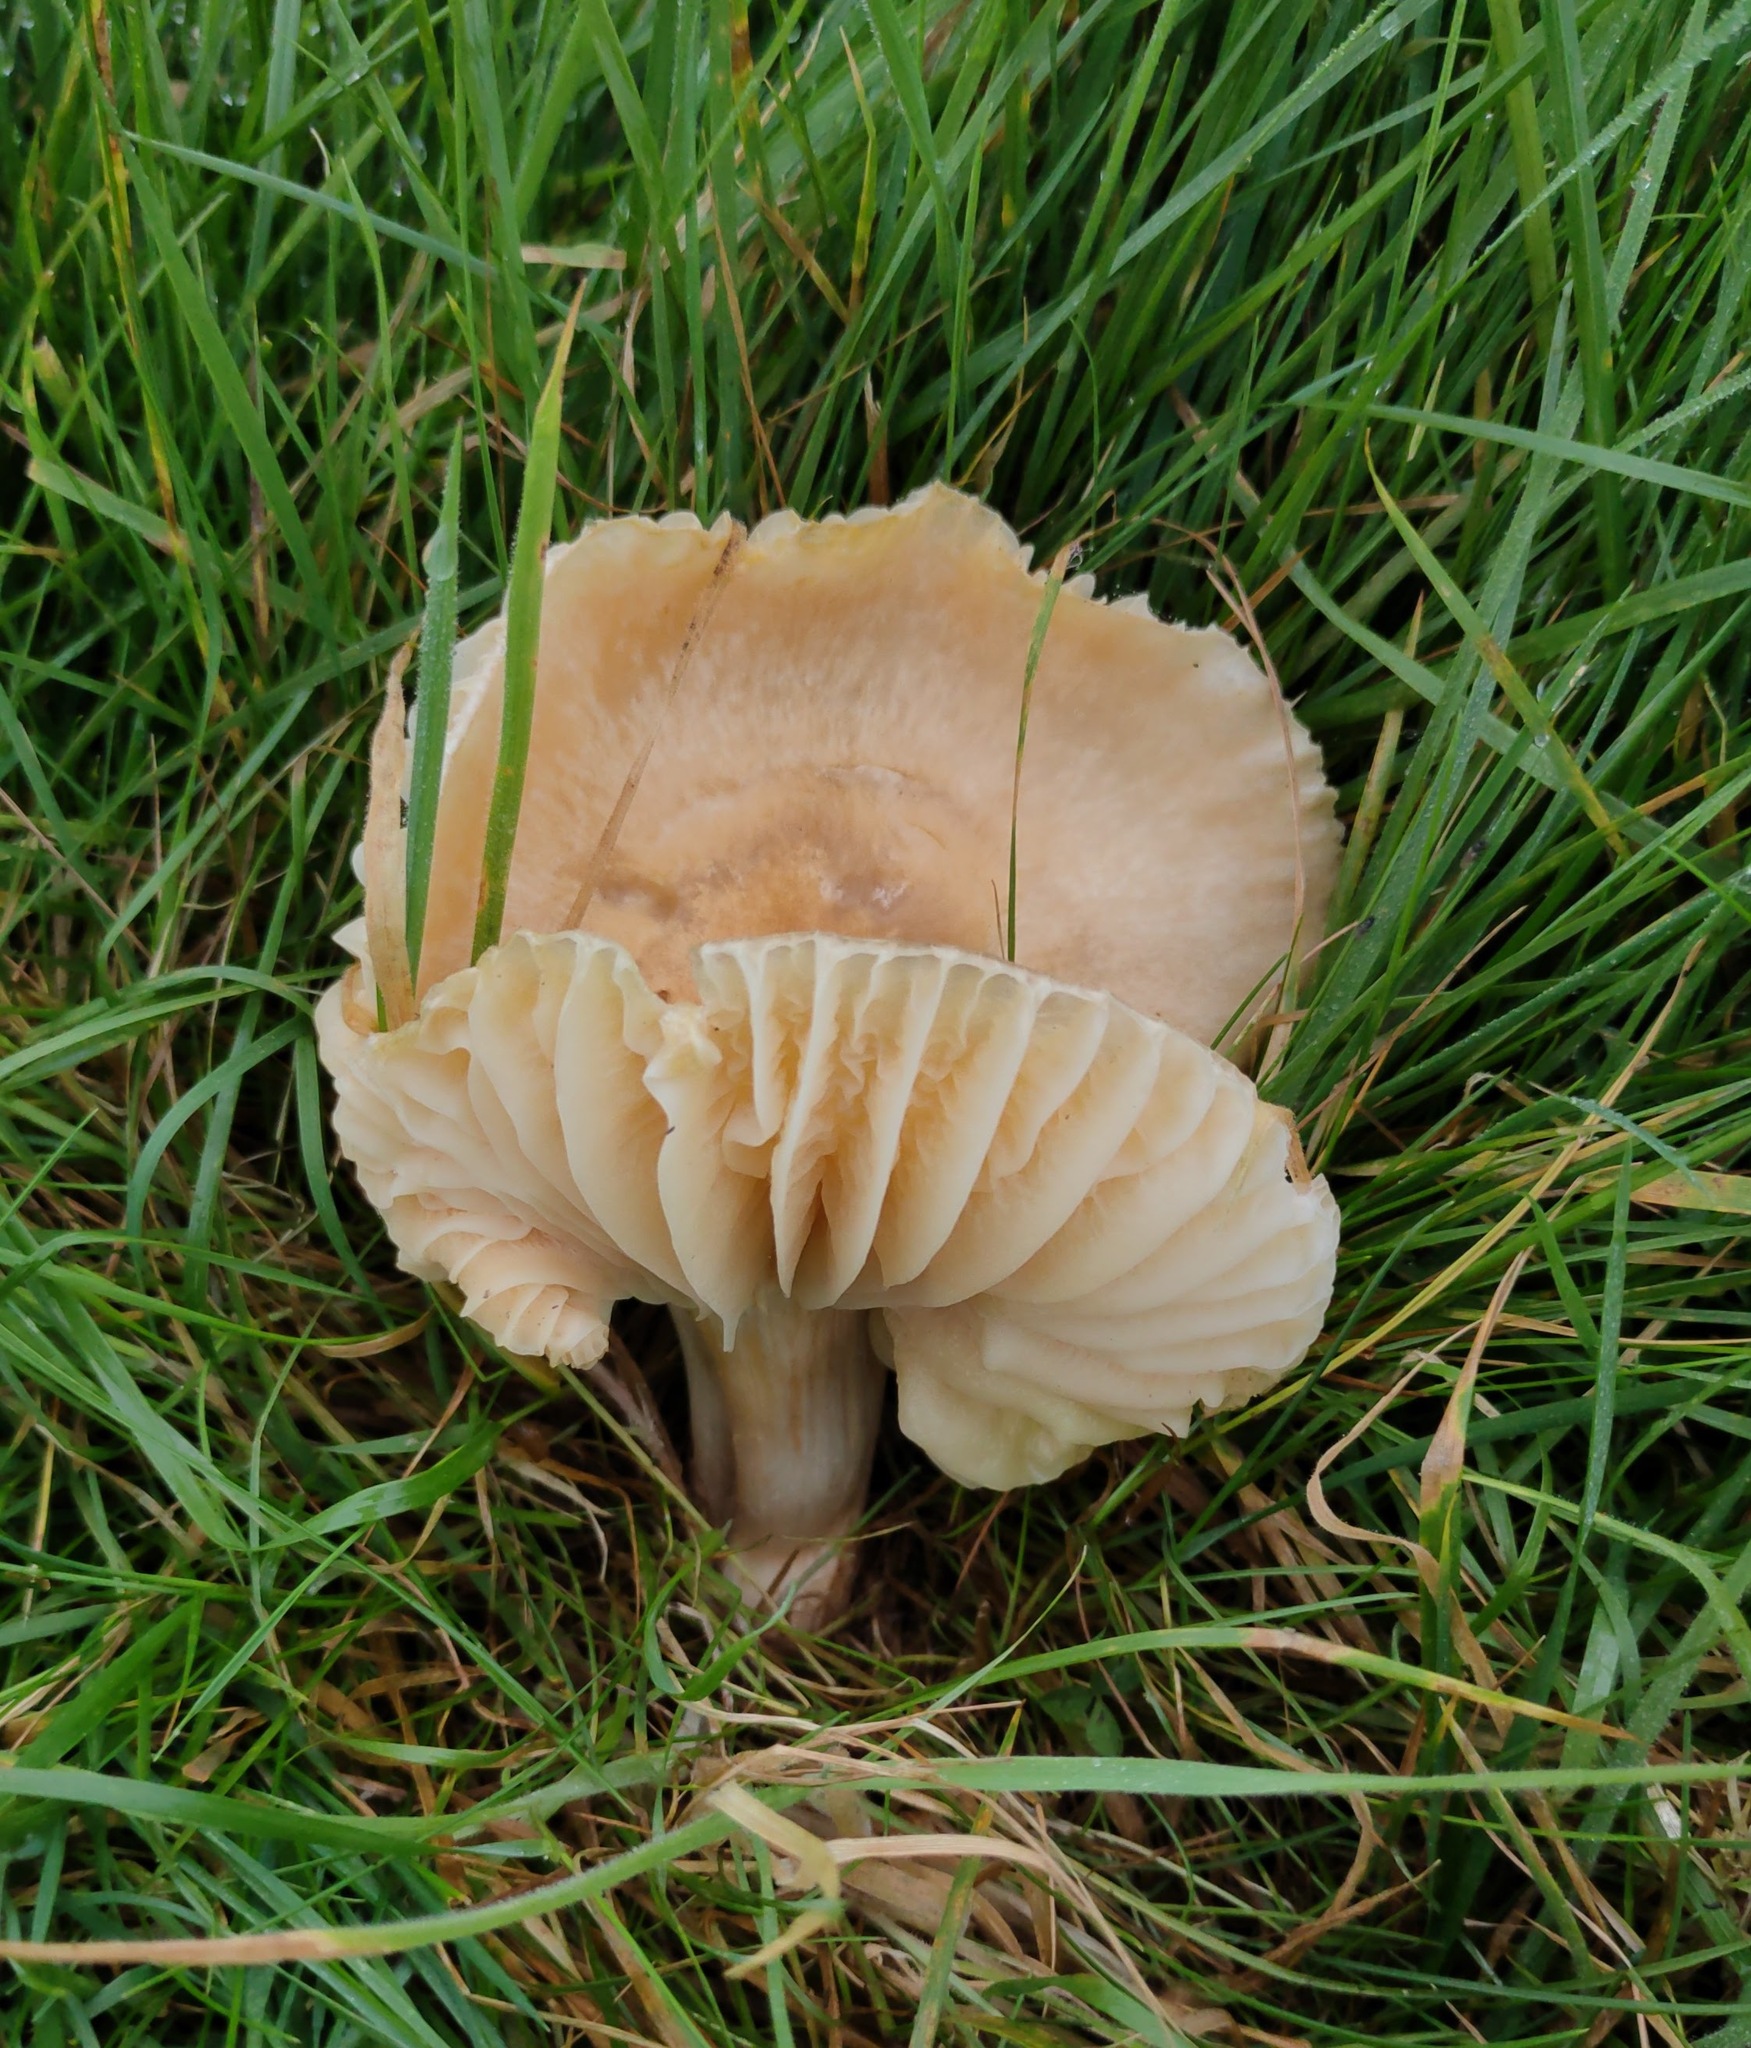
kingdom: Fungi
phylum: Basidiomycota
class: Agaricomycetes
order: Agaricales
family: Hygrophoraceae
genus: Cuphophyllus
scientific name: Cuphophyllus pratensis
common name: Meadow waxcap
